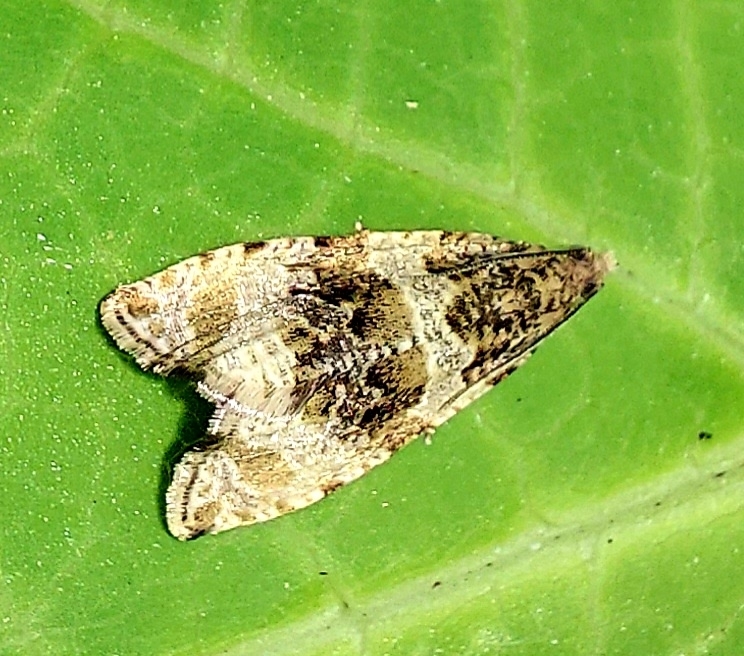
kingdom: Animalia
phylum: Arthropoda
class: Insecta
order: Lepidoptera
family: Tortricidae
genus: Syricoris
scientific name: Syricoris lacunana
